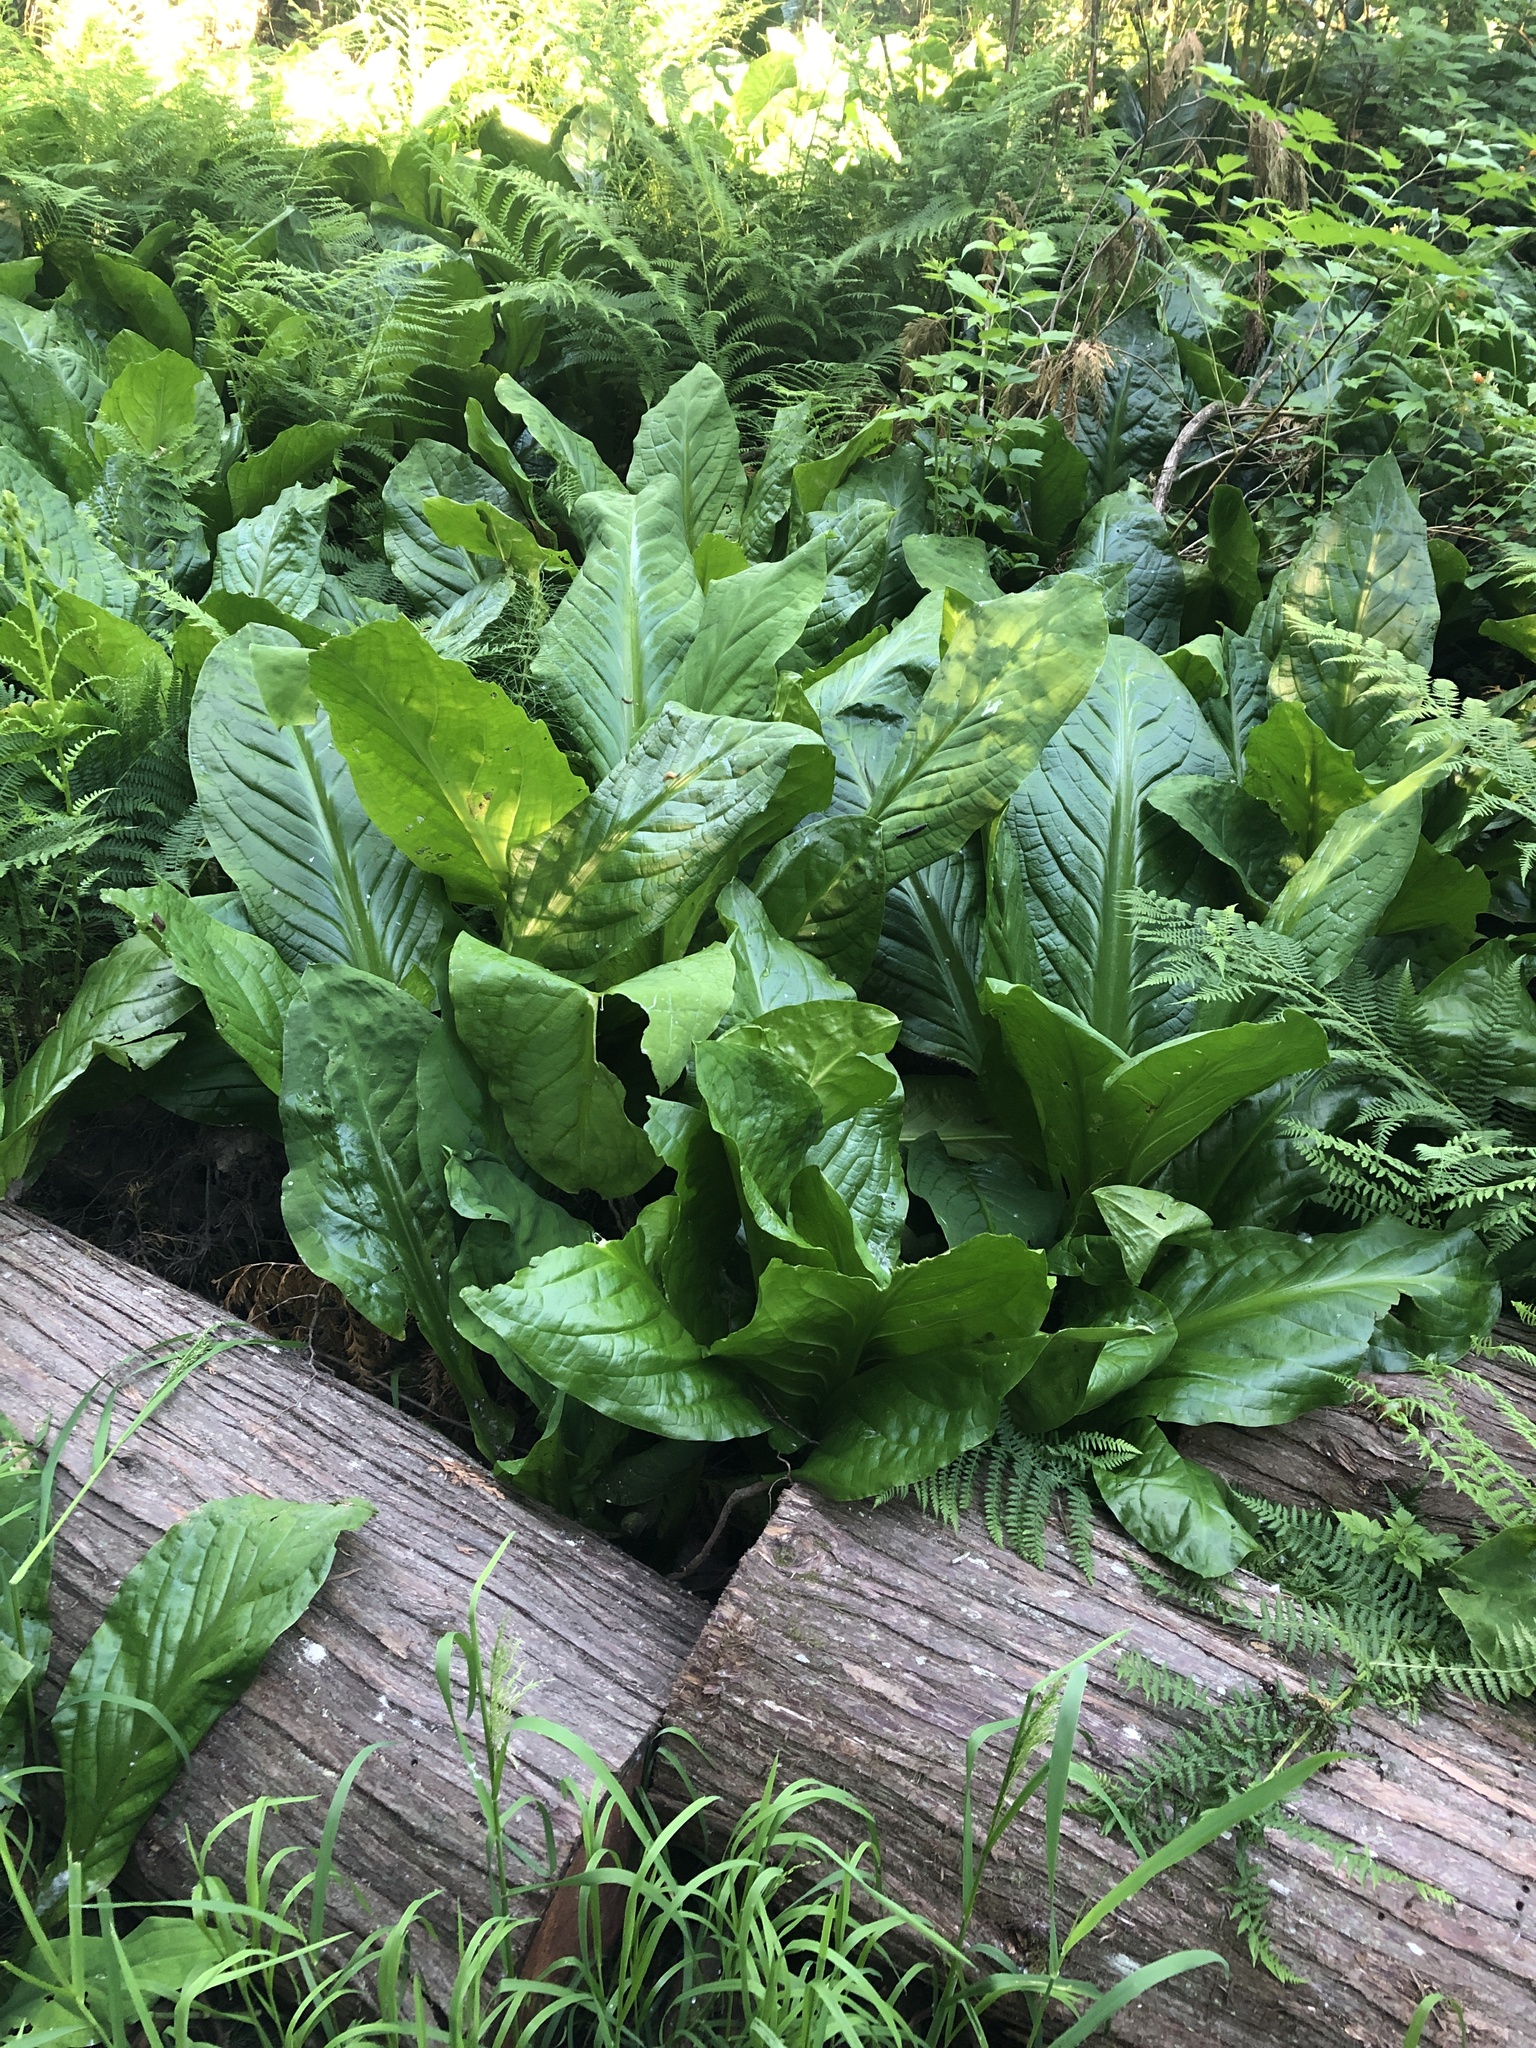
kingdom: Plantae
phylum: Tracheophyta
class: Liliopsida
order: Alismatales
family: Araceae
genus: Lysichiton
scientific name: Lysichiton americanus
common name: American skunk cabbage
